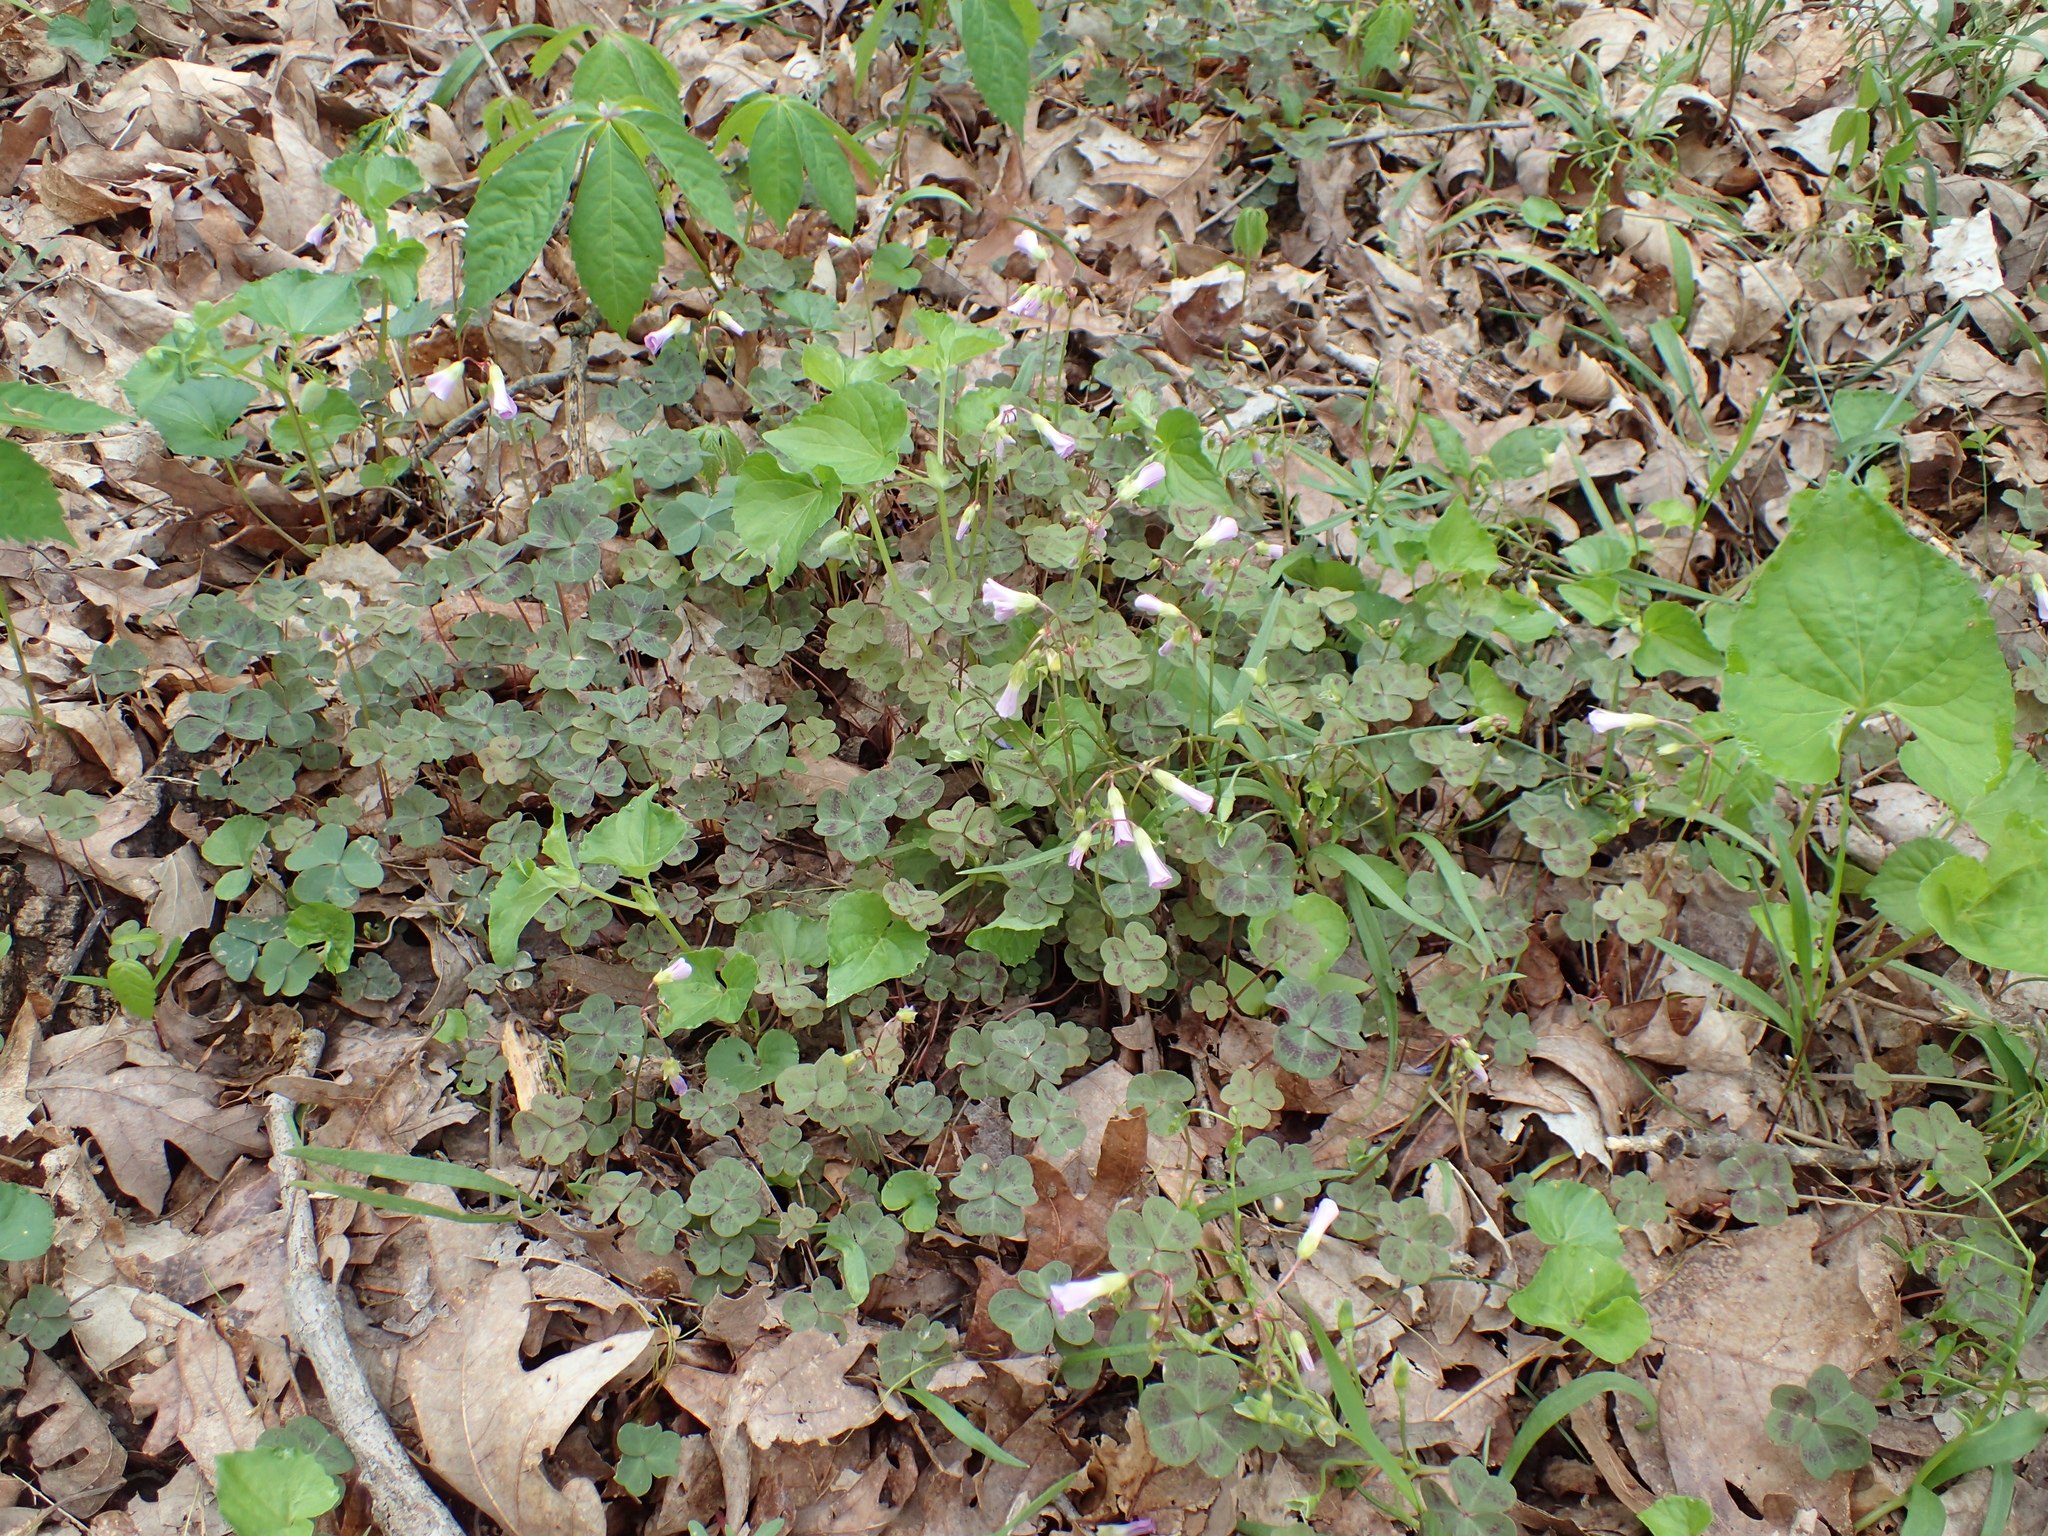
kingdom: Plantae
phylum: Tracheophyta
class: Magnoliopsida
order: Oxalidales
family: Oxalidaceae
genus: Oxalis
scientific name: Oxalis violacea
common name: Violet wood-sorrel
